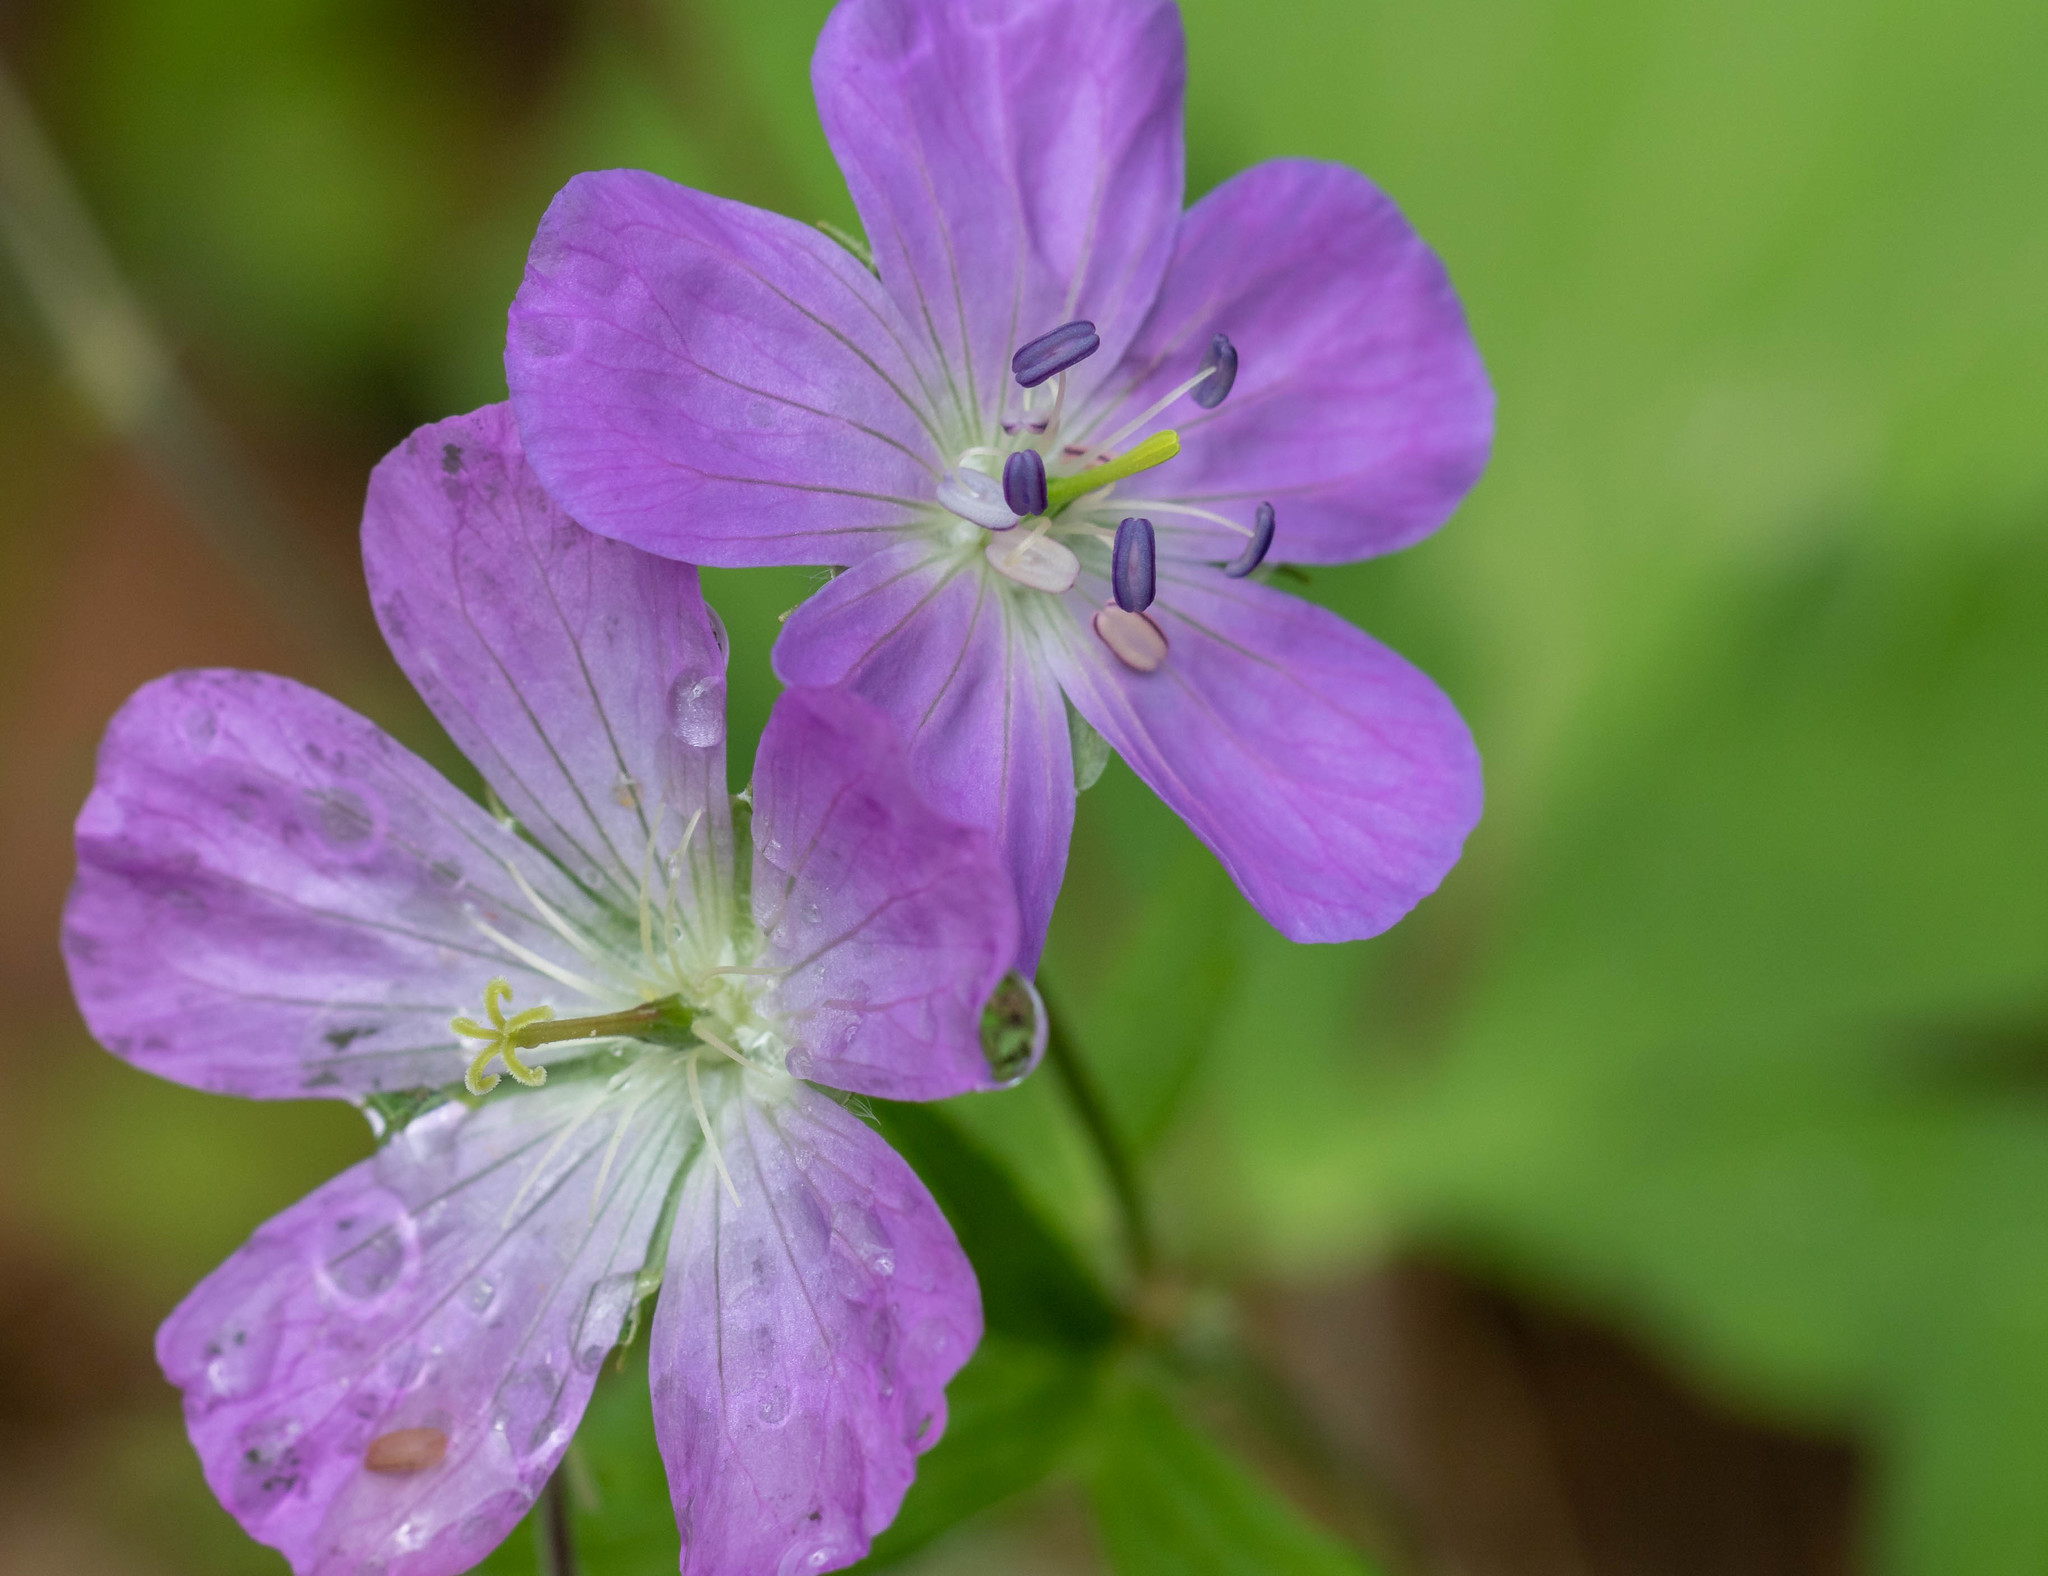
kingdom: Plantae
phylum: Tracheophyta
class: Magnoliopsida
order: Geraniales
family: Geraniaceae
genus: Geranium
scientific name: Geranium maculatum
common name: Spotted geranium
